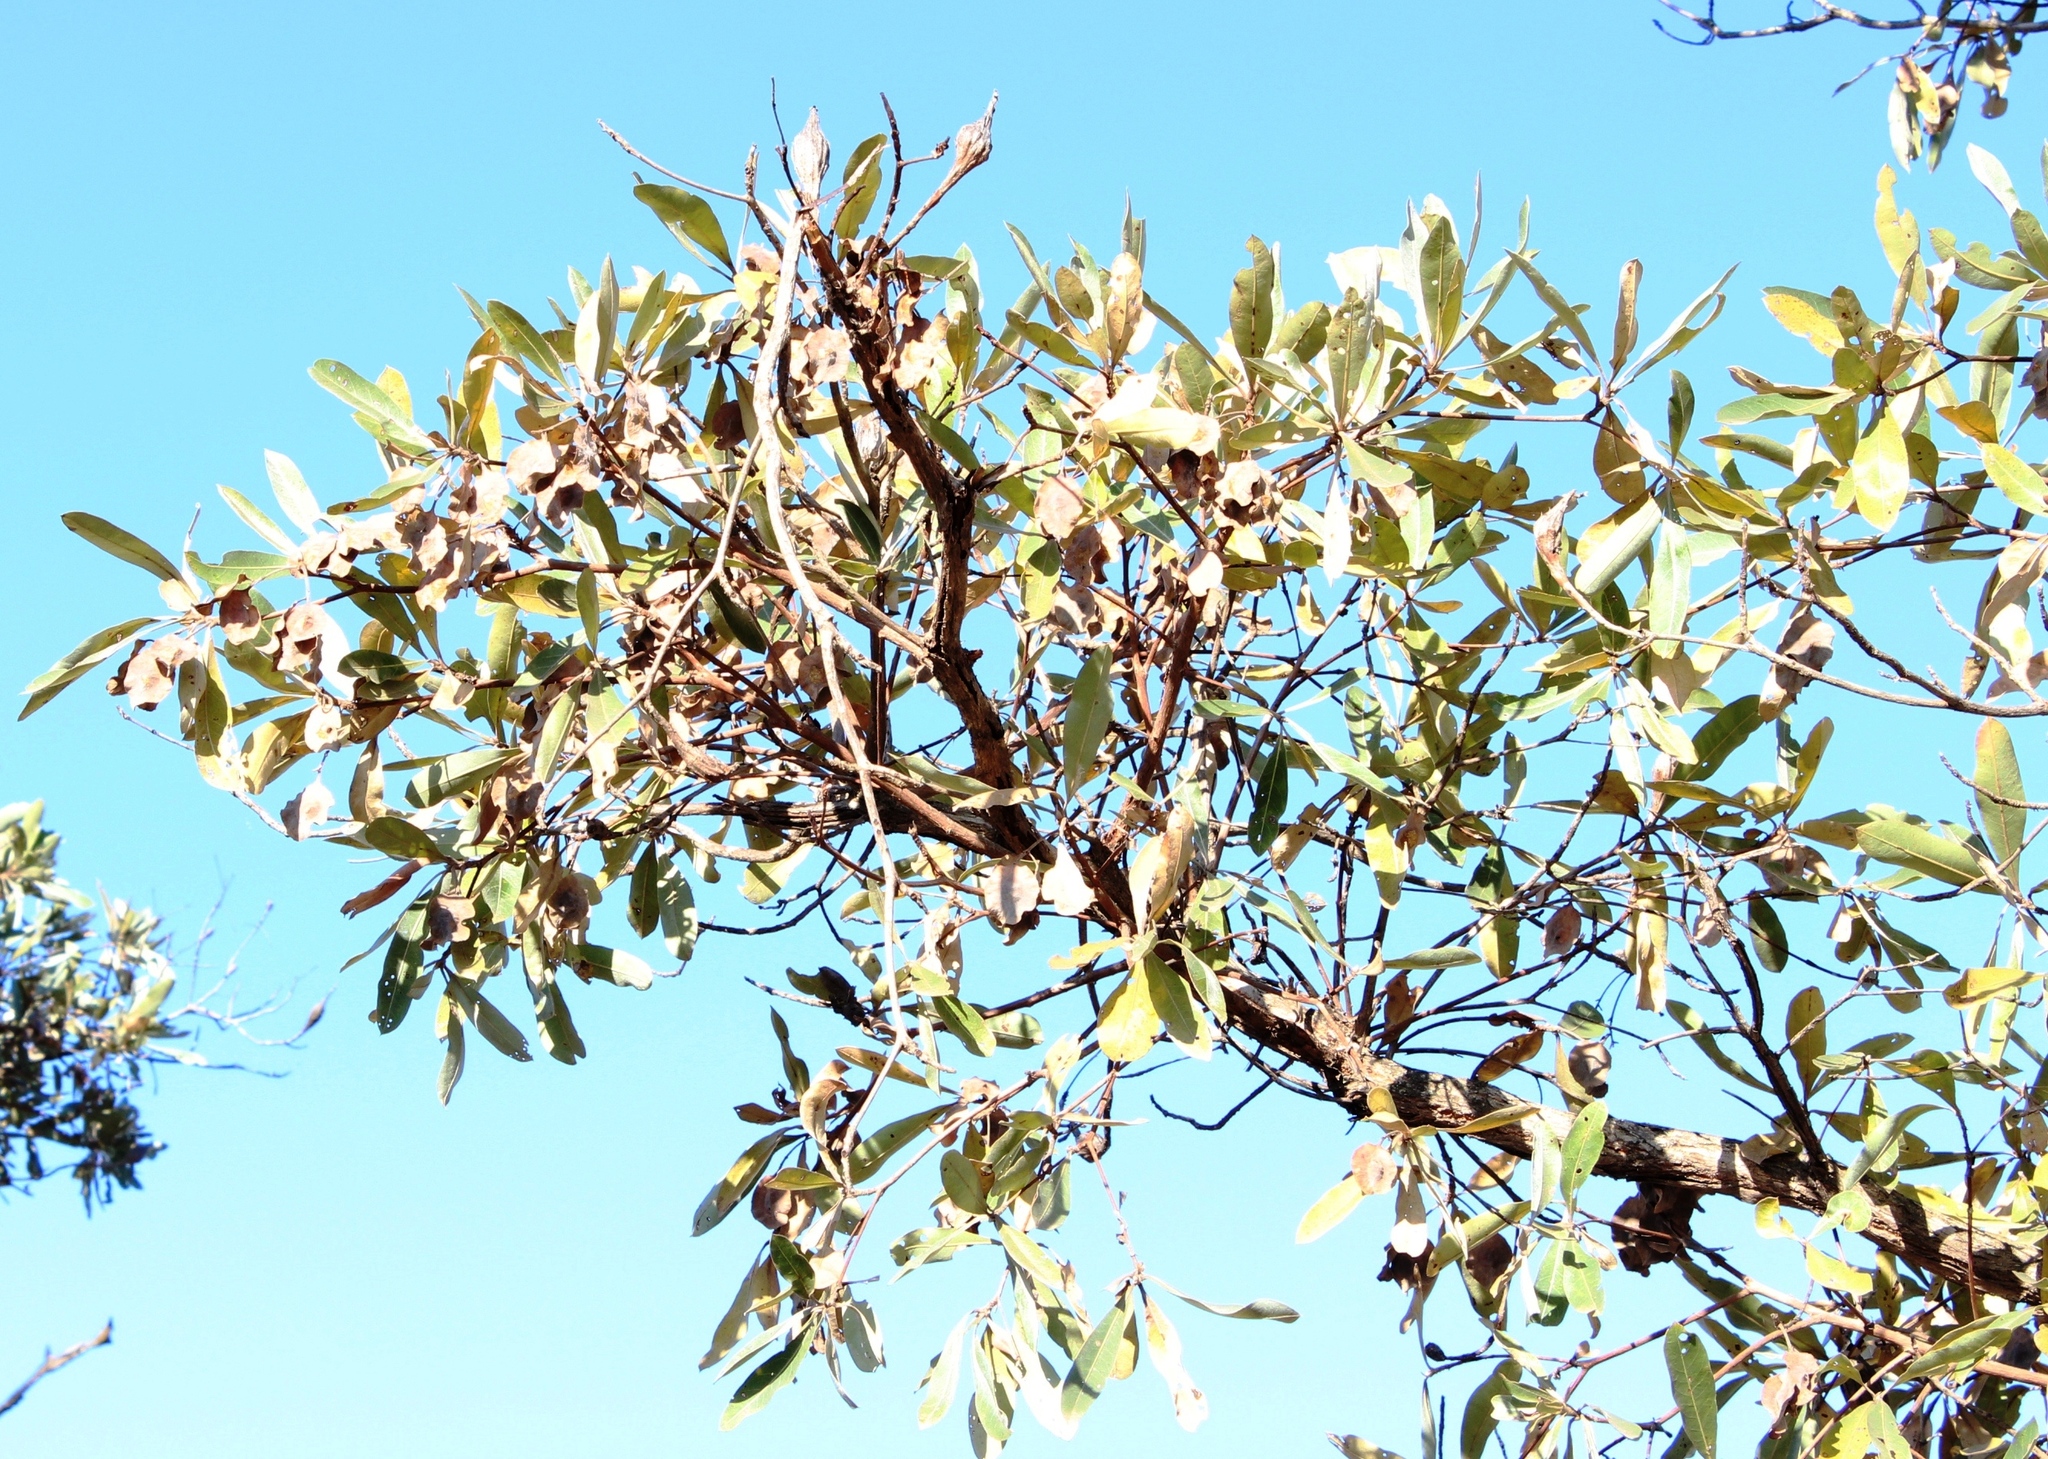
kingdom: Plantae
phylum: Tracheophyta
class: Magnoliopsida
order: Myrtales
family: Combretaceae
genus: Terminalia
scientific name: Terminalia sericea
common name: Clusterleaf
